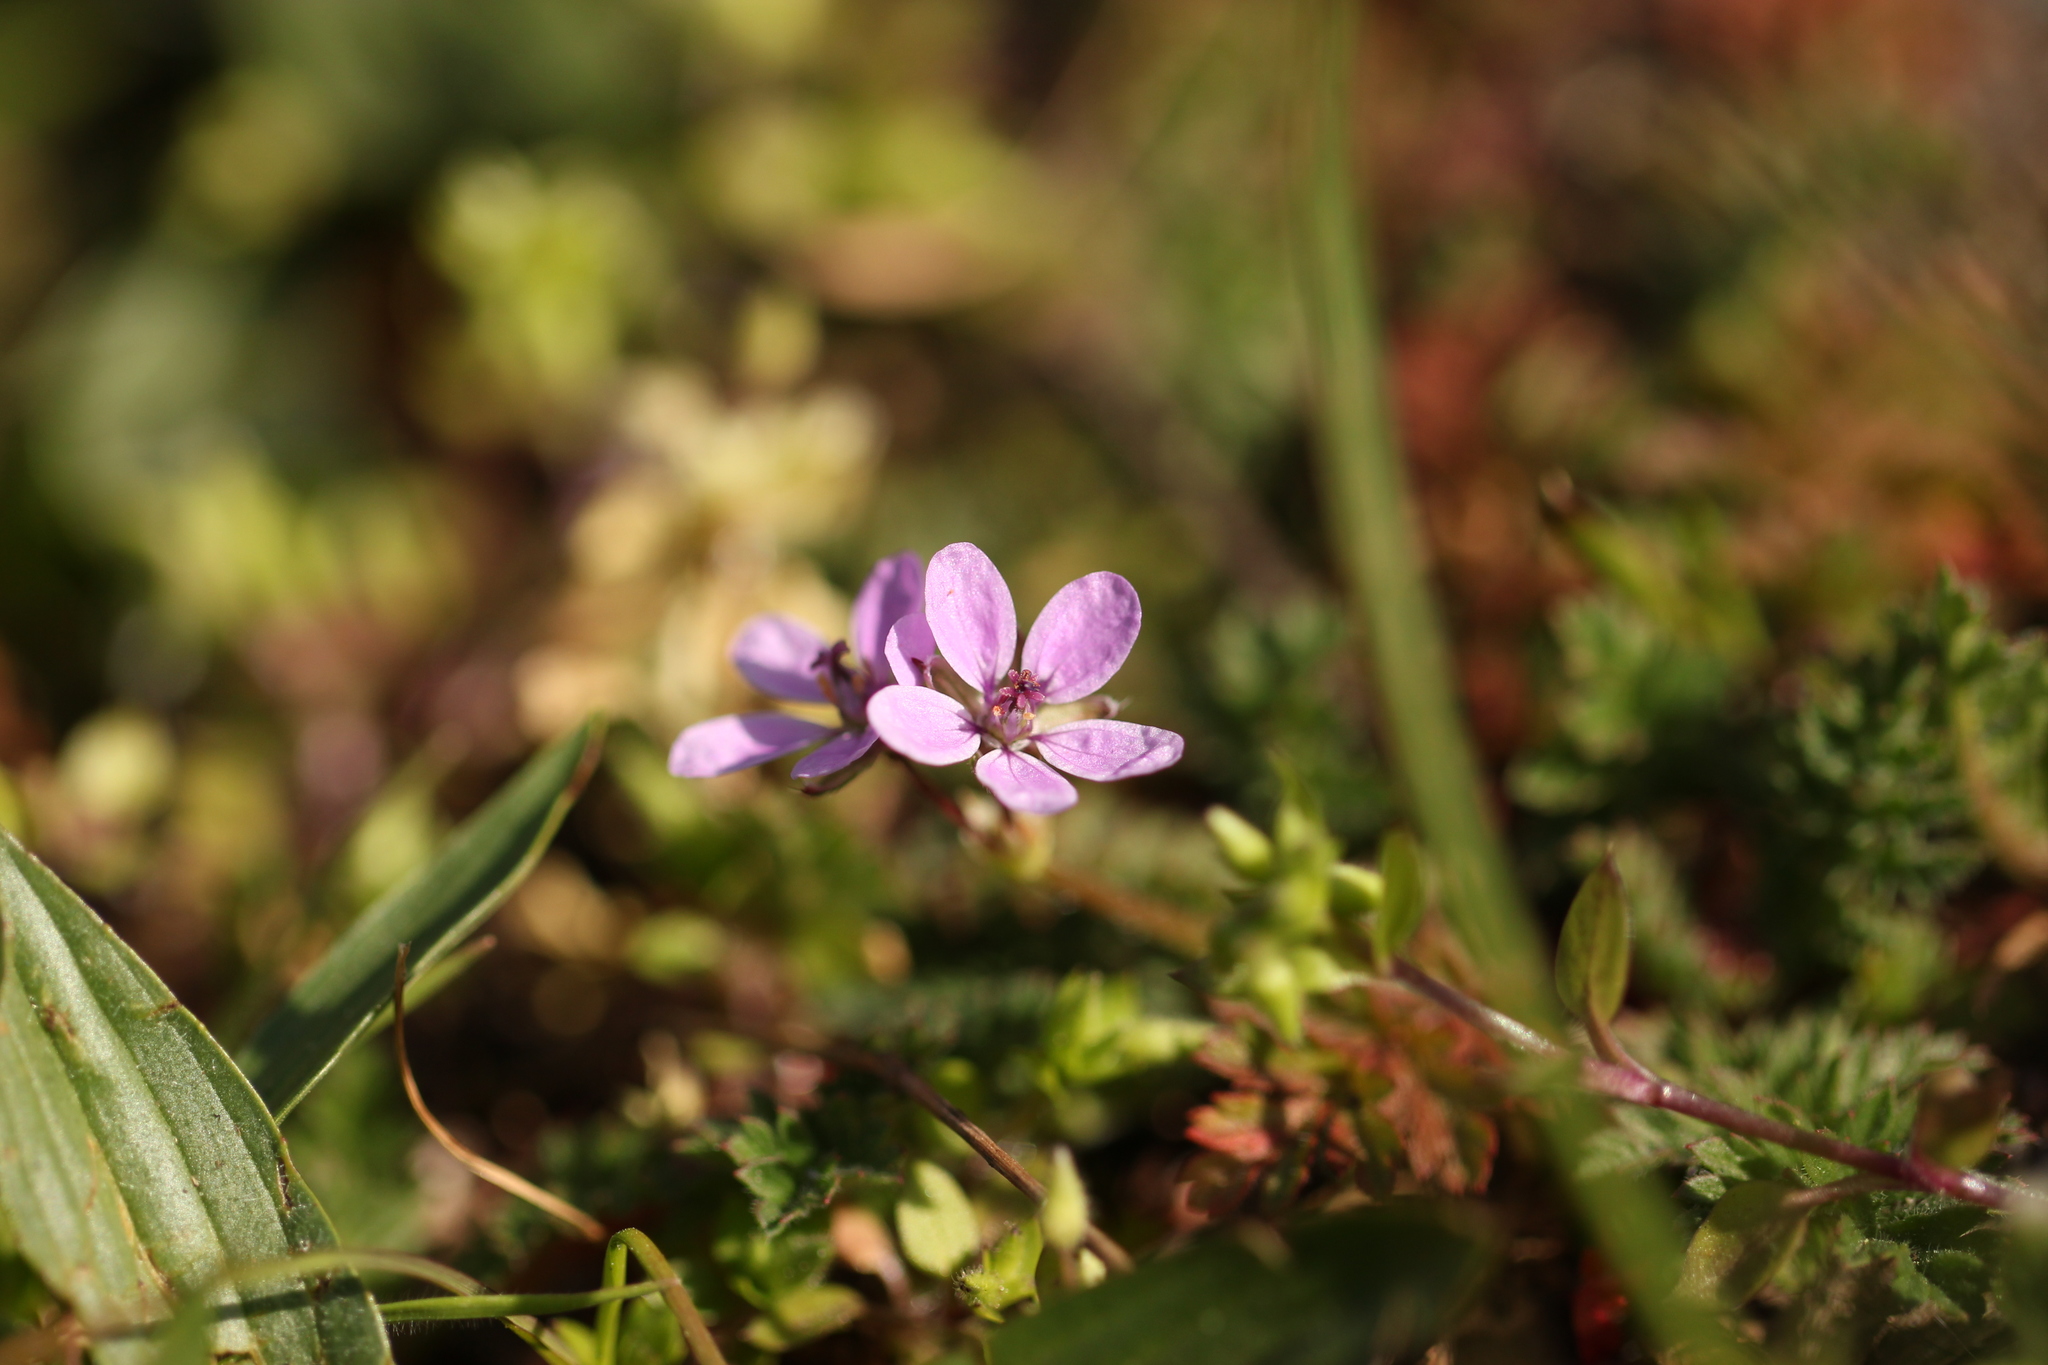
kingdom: Plantae
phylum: Tracheophyta
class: Magnoliopsida
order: Geraniales
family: Geraniaceae
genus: Erodium
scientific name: Erodium cicutarium
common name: Common stork's-bill
